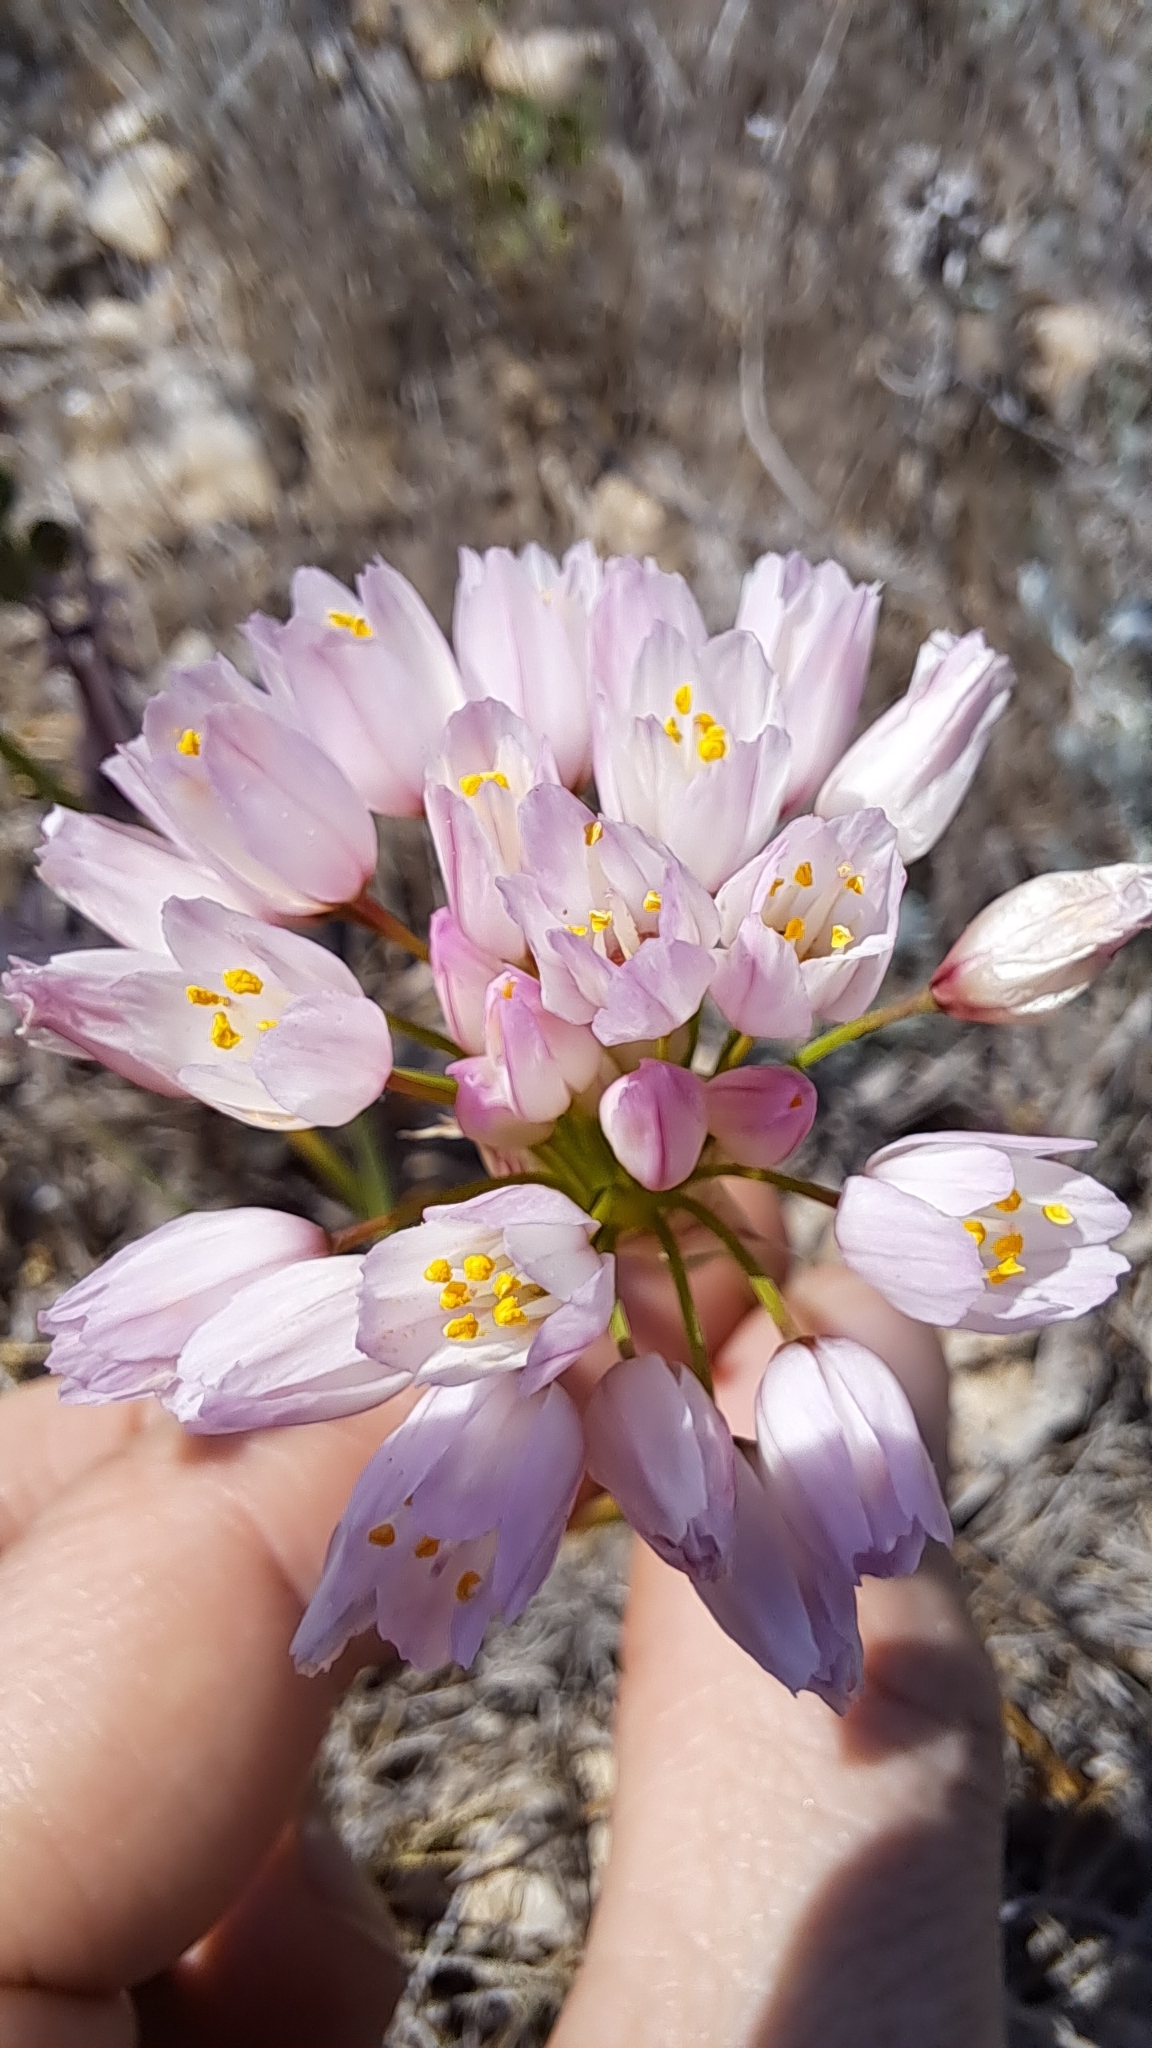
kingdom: Plantae
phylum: Tracheophyta
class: Liliopsida
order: Asparagales
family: Amaryllidaceae
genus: Allium
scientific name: Allium roseum
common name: Rosy garlic
